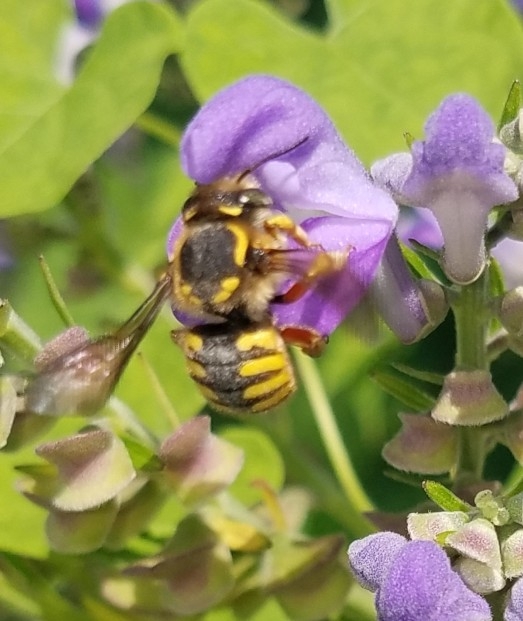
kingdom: Animalia
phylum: Arthropoda
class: Insecta
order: Hymenoptera
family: Megachilidae
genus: Anthidium
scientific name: Anthidium manicatum
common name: Wool carder bee
